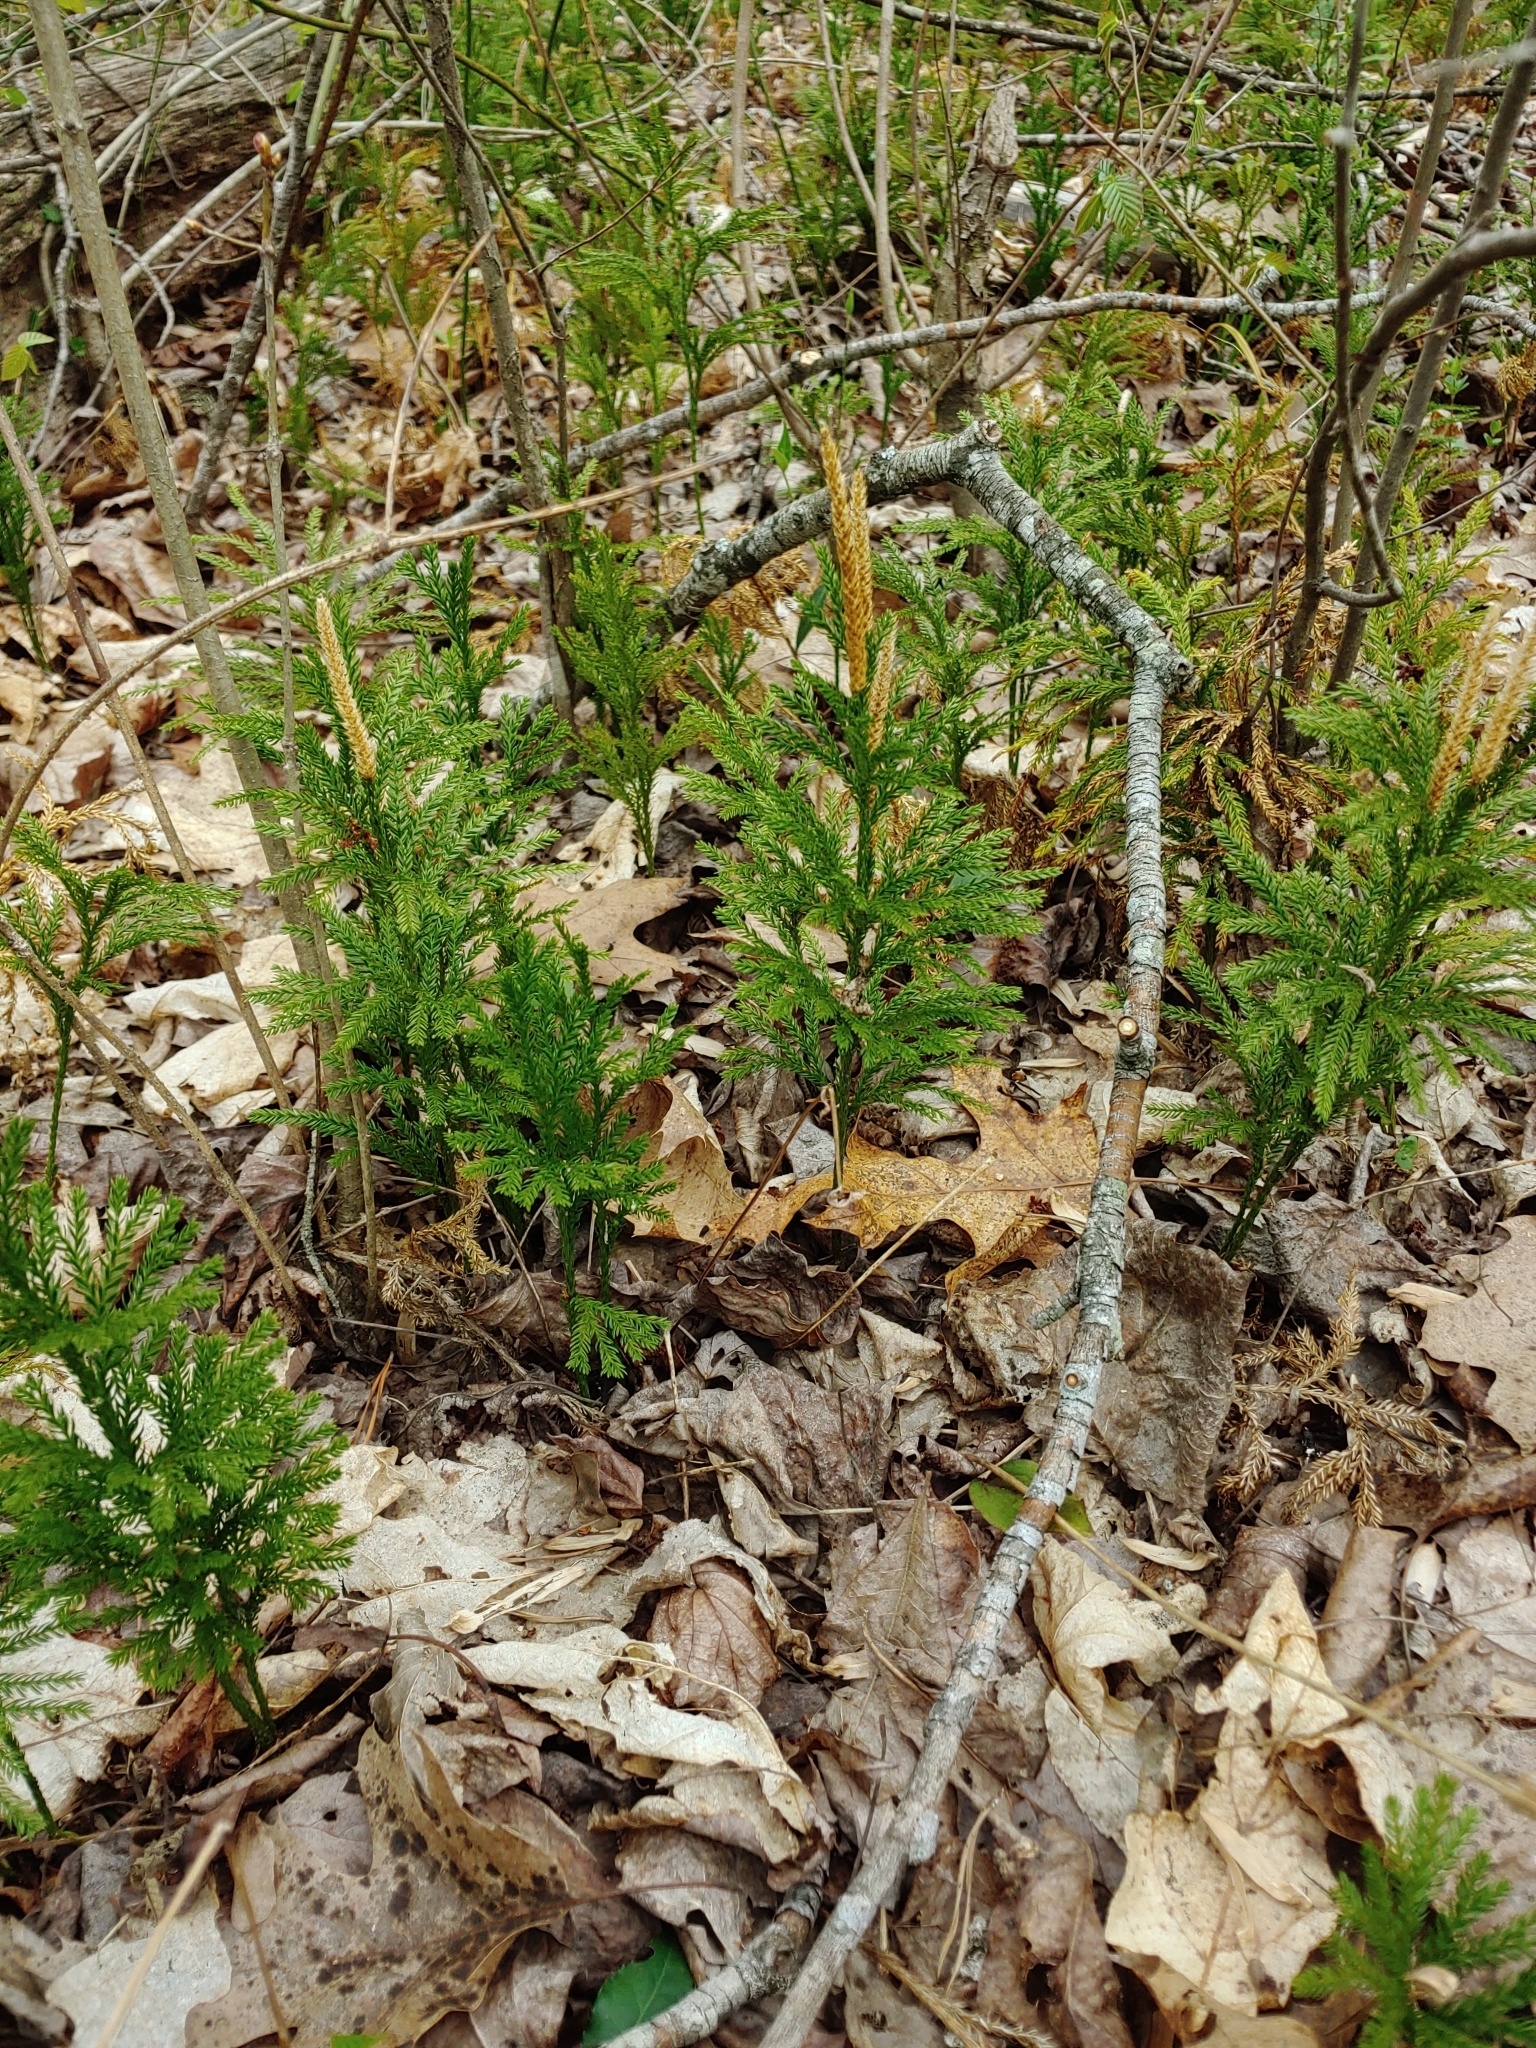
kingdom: Plantae
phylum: Tracheophyta
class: Lycopodiopsida
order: Lycopodiales
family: Lycopodiaceae
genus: Dendrolycopodium
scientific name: Dendrolycopodium obscurum
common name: Common ground-pine
